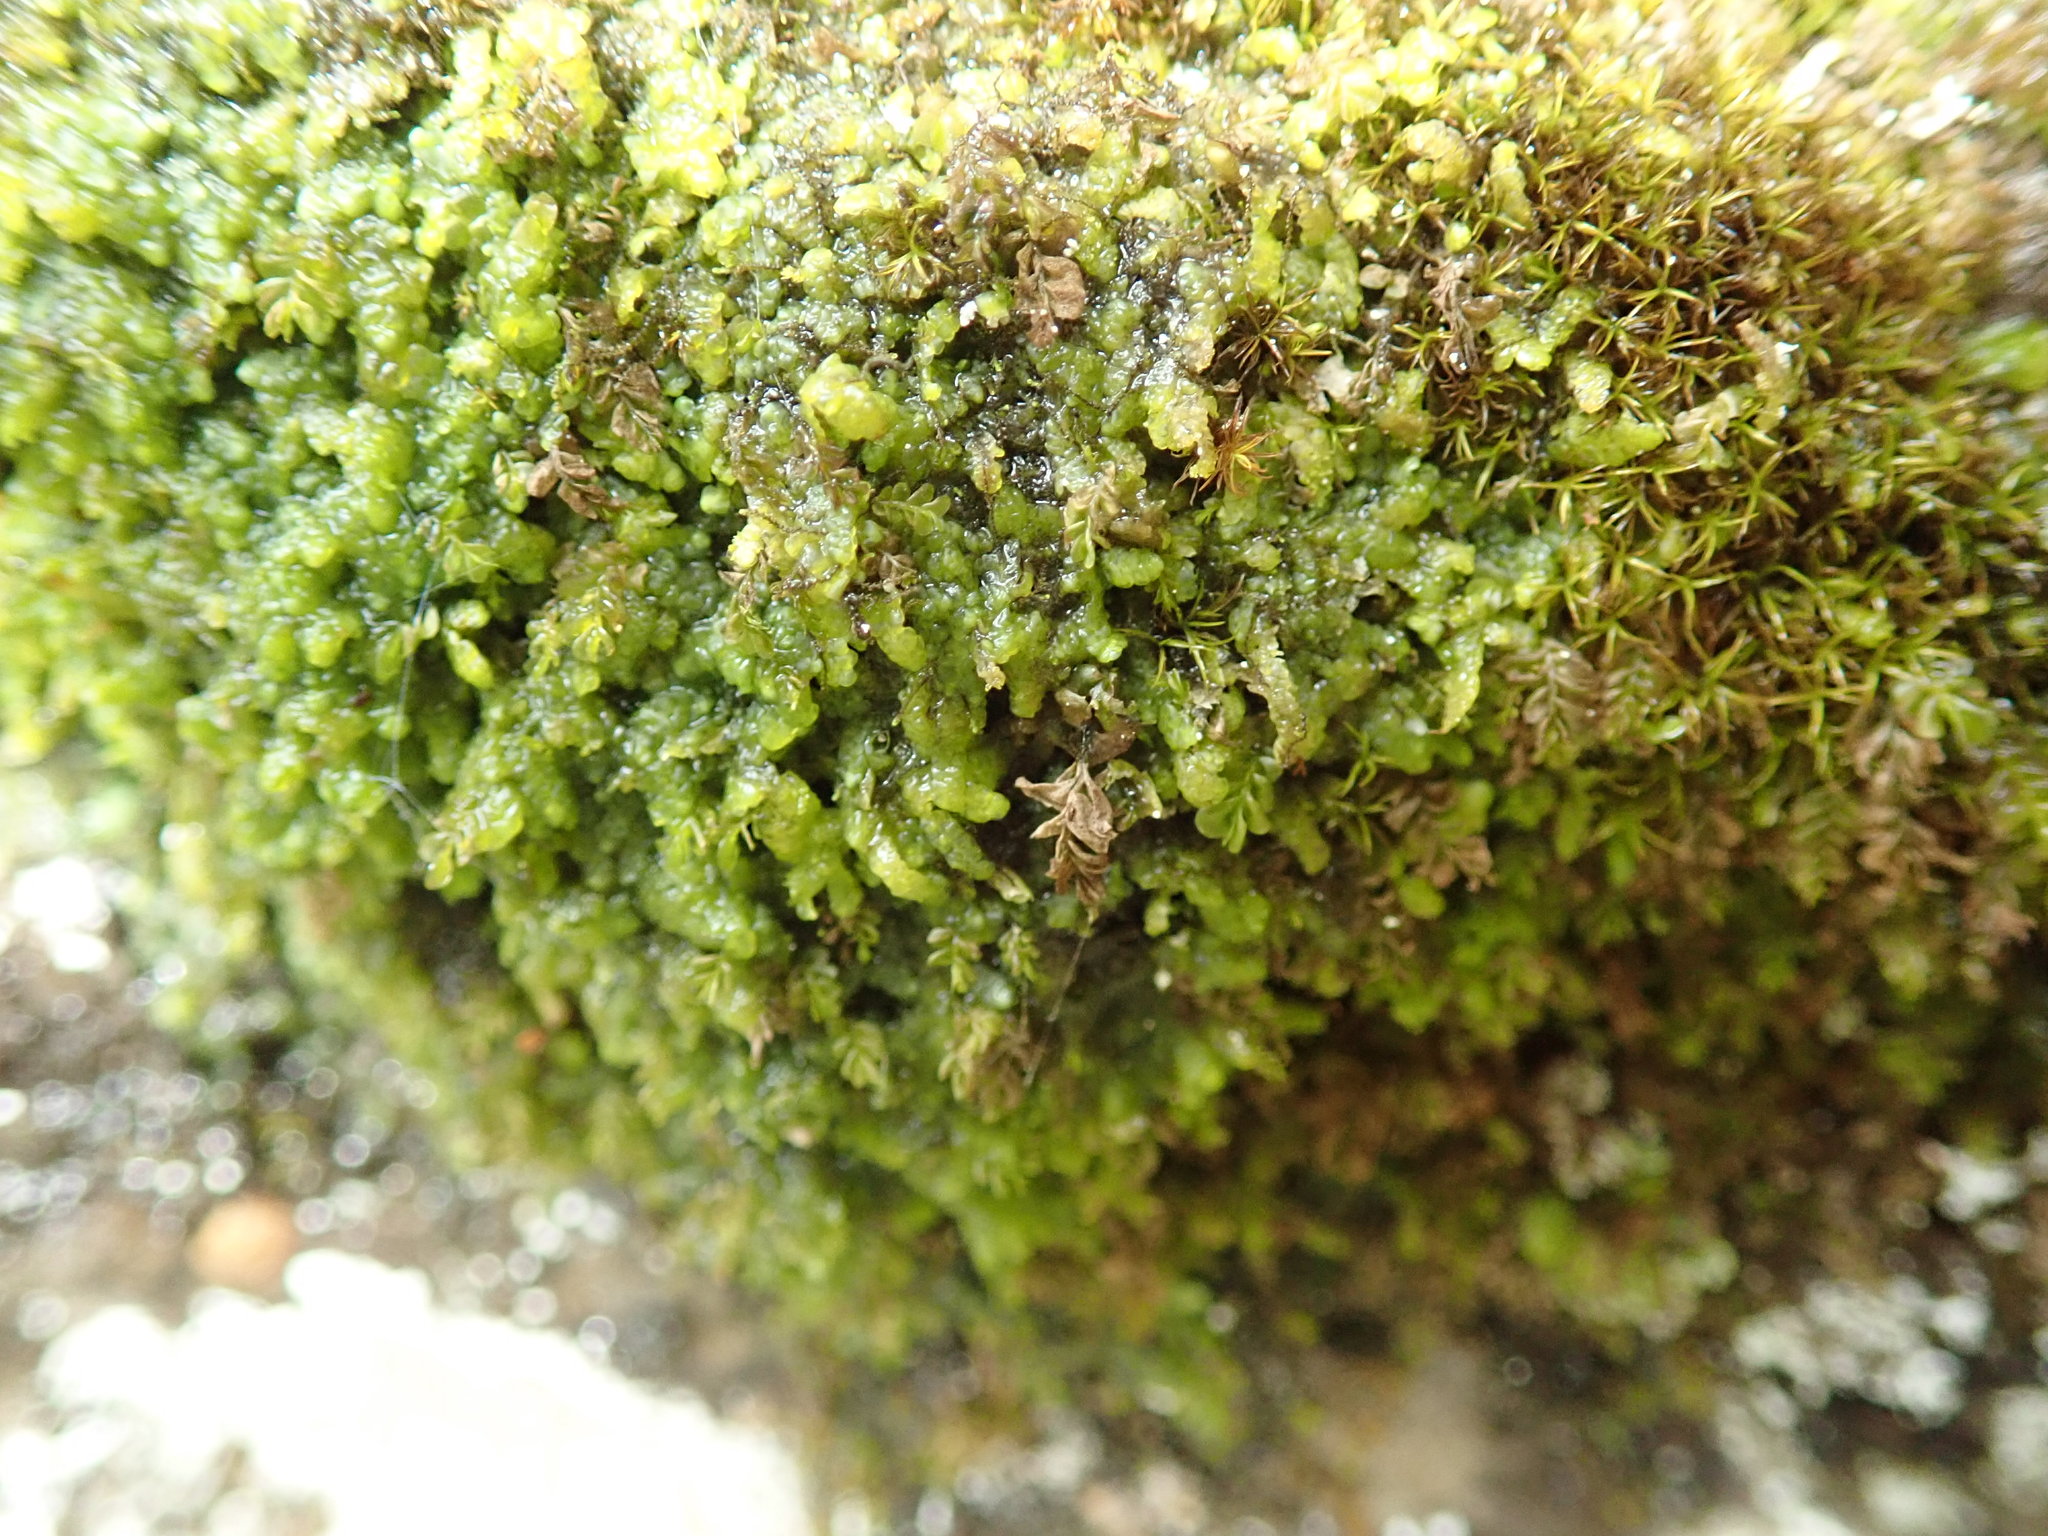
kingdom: Plantae
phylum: Marchantiophyta
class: Jungermanniopsida
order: Porellales
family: Radulaceae
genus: Radula
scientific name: Radula complanata
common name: Flat-leaved scalewort
